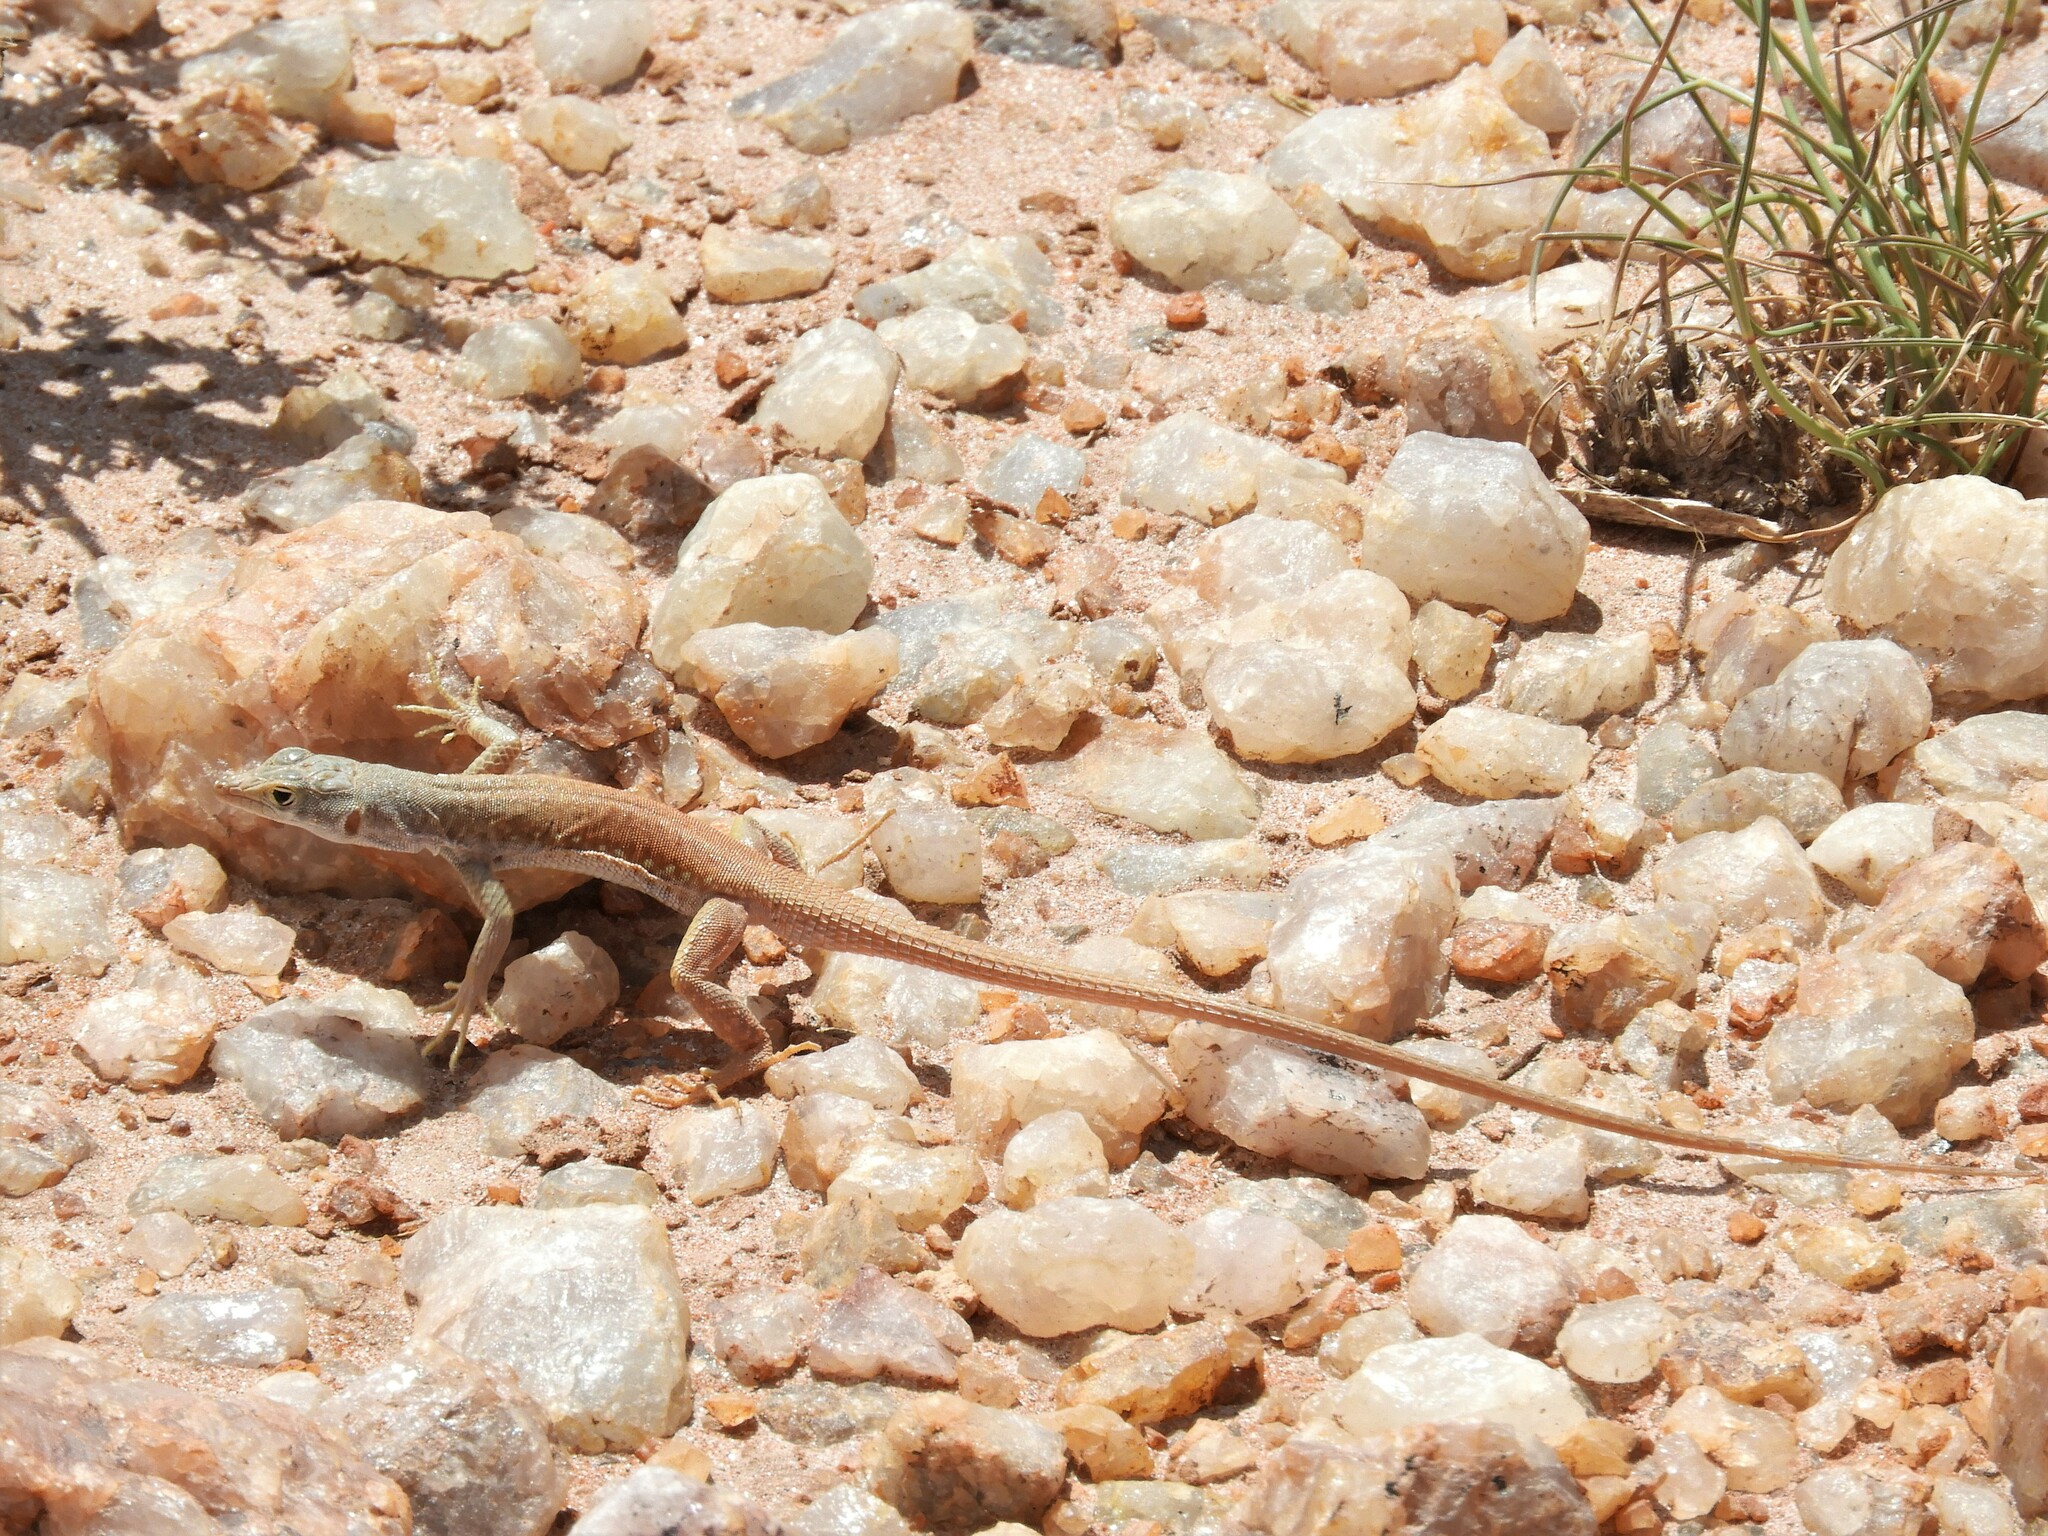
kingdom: Animalia
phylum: Chordata
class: Squamata
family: Lacertidae
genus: Pedioplanis
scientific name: Pedioplanis inornata
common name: Plain sand lizard
